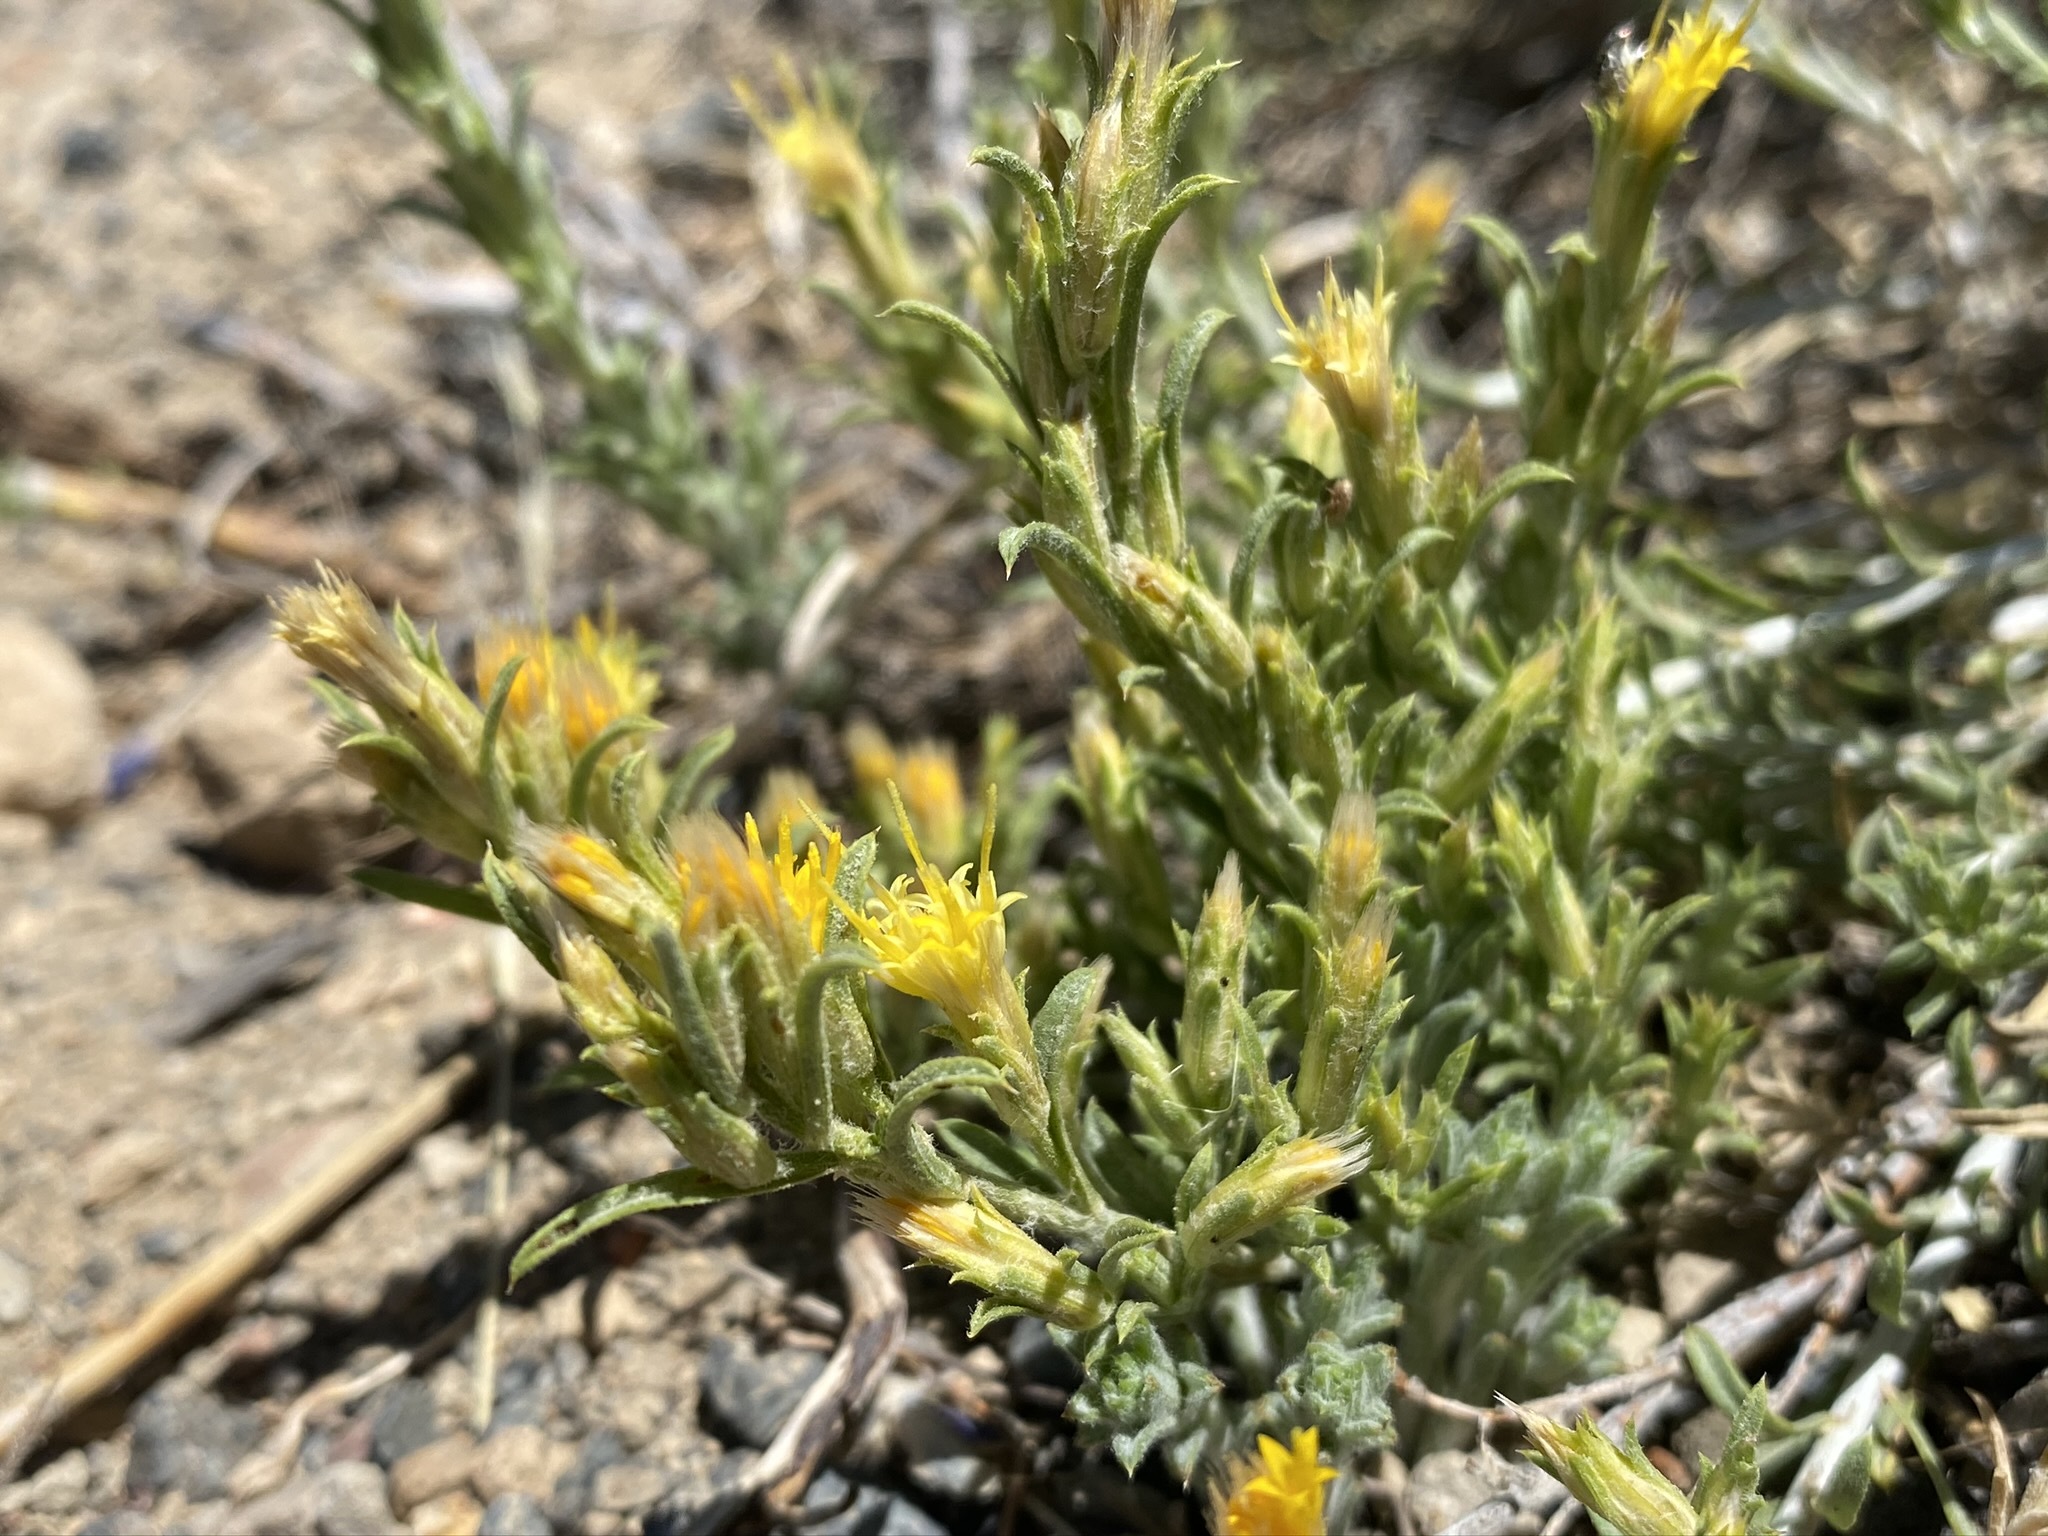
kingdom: Plantae
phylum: Tracheophyta
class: Magnoliopsida
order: Asterales
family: Asteraceae
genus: Ericameria
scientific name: Ericameria parryi
